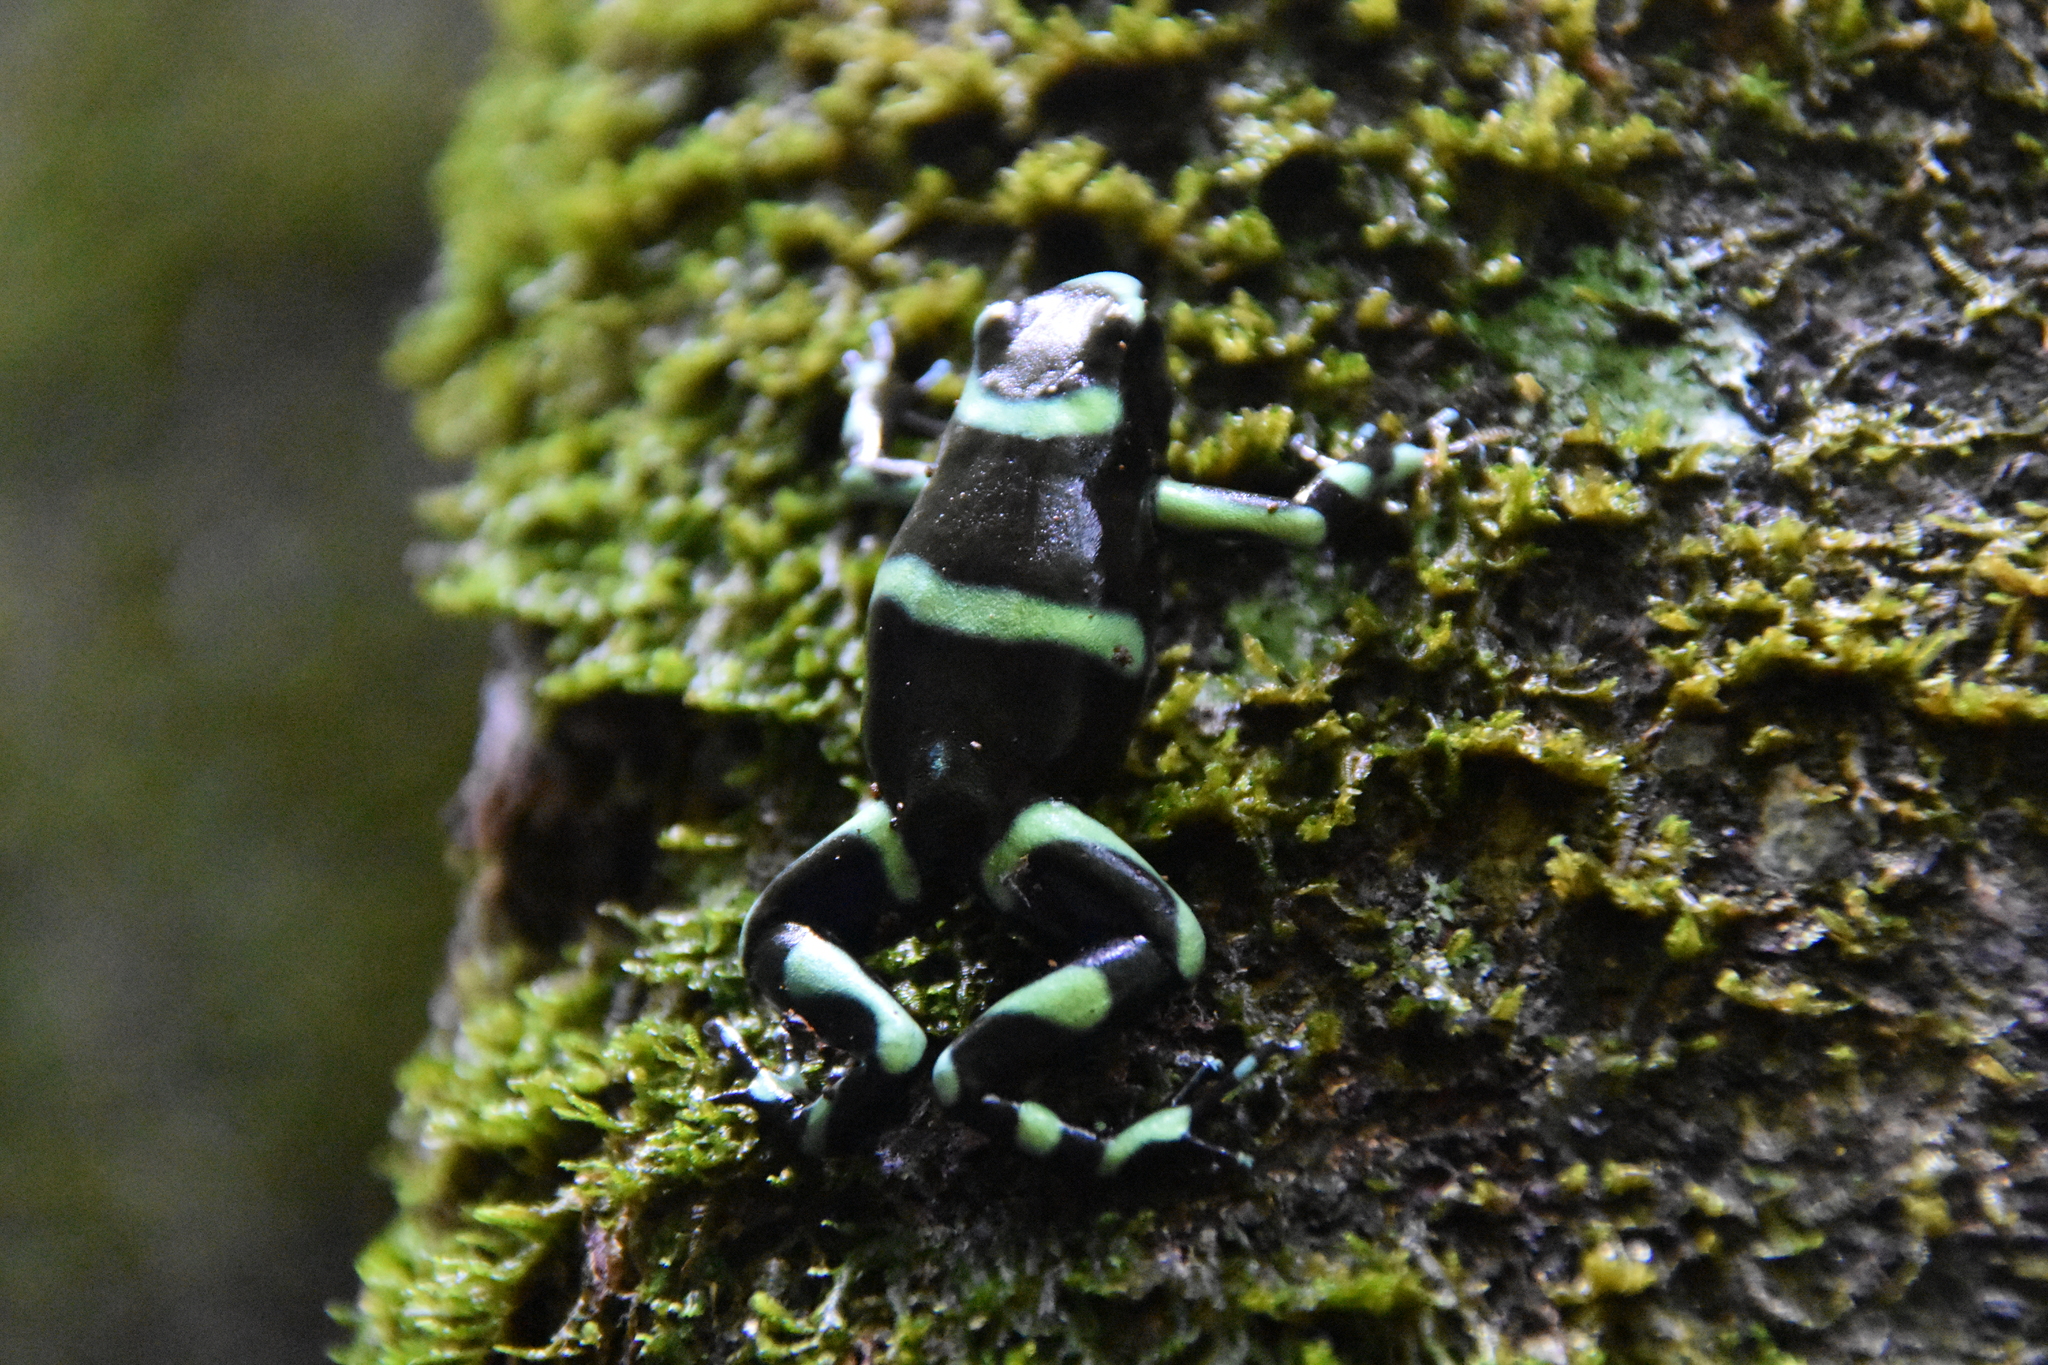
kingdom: Animalia
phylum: Chordata
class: Amphibia
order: Anura
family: Dendrobatidae
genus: Dendrobates
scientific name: Dendrobates auratus
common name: Green and black poison dart frog
